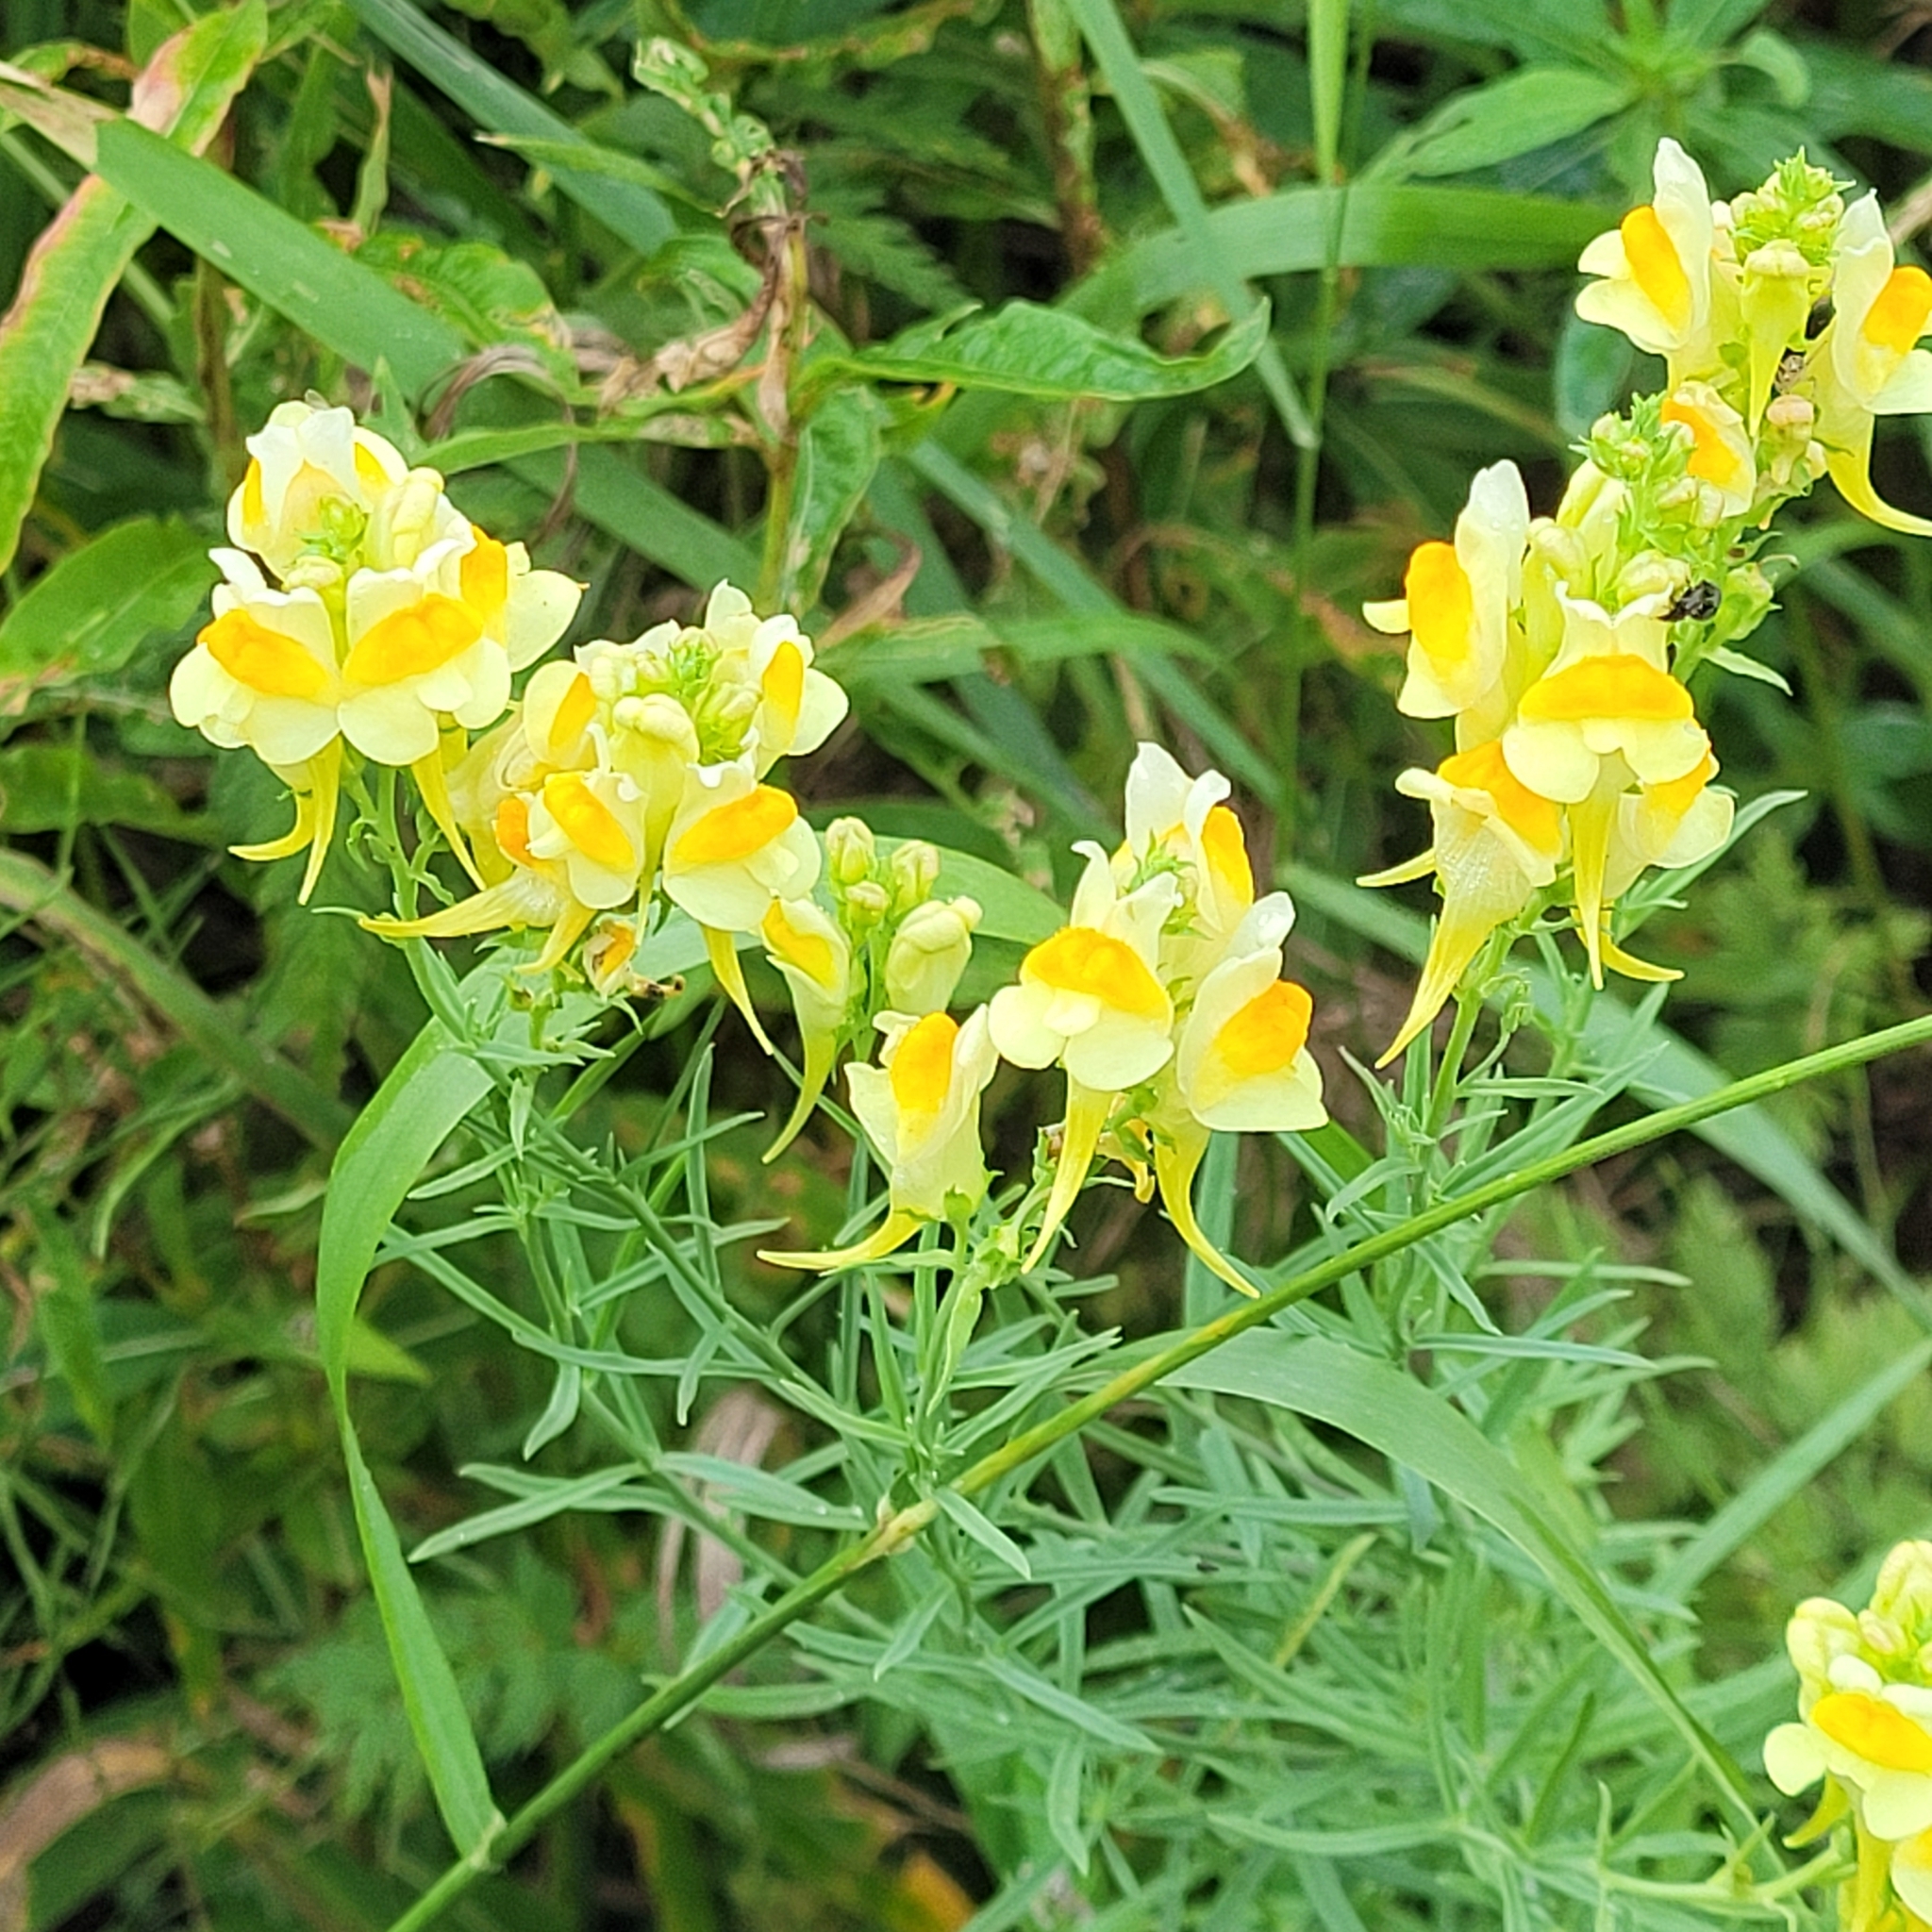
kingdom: Plantae
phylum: Tracheophyta
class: Magnoliopsida
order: Lamiales
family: Plantaginaceae
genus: Linaria
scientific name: Linaria vulgaris
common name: Butter and eggs
